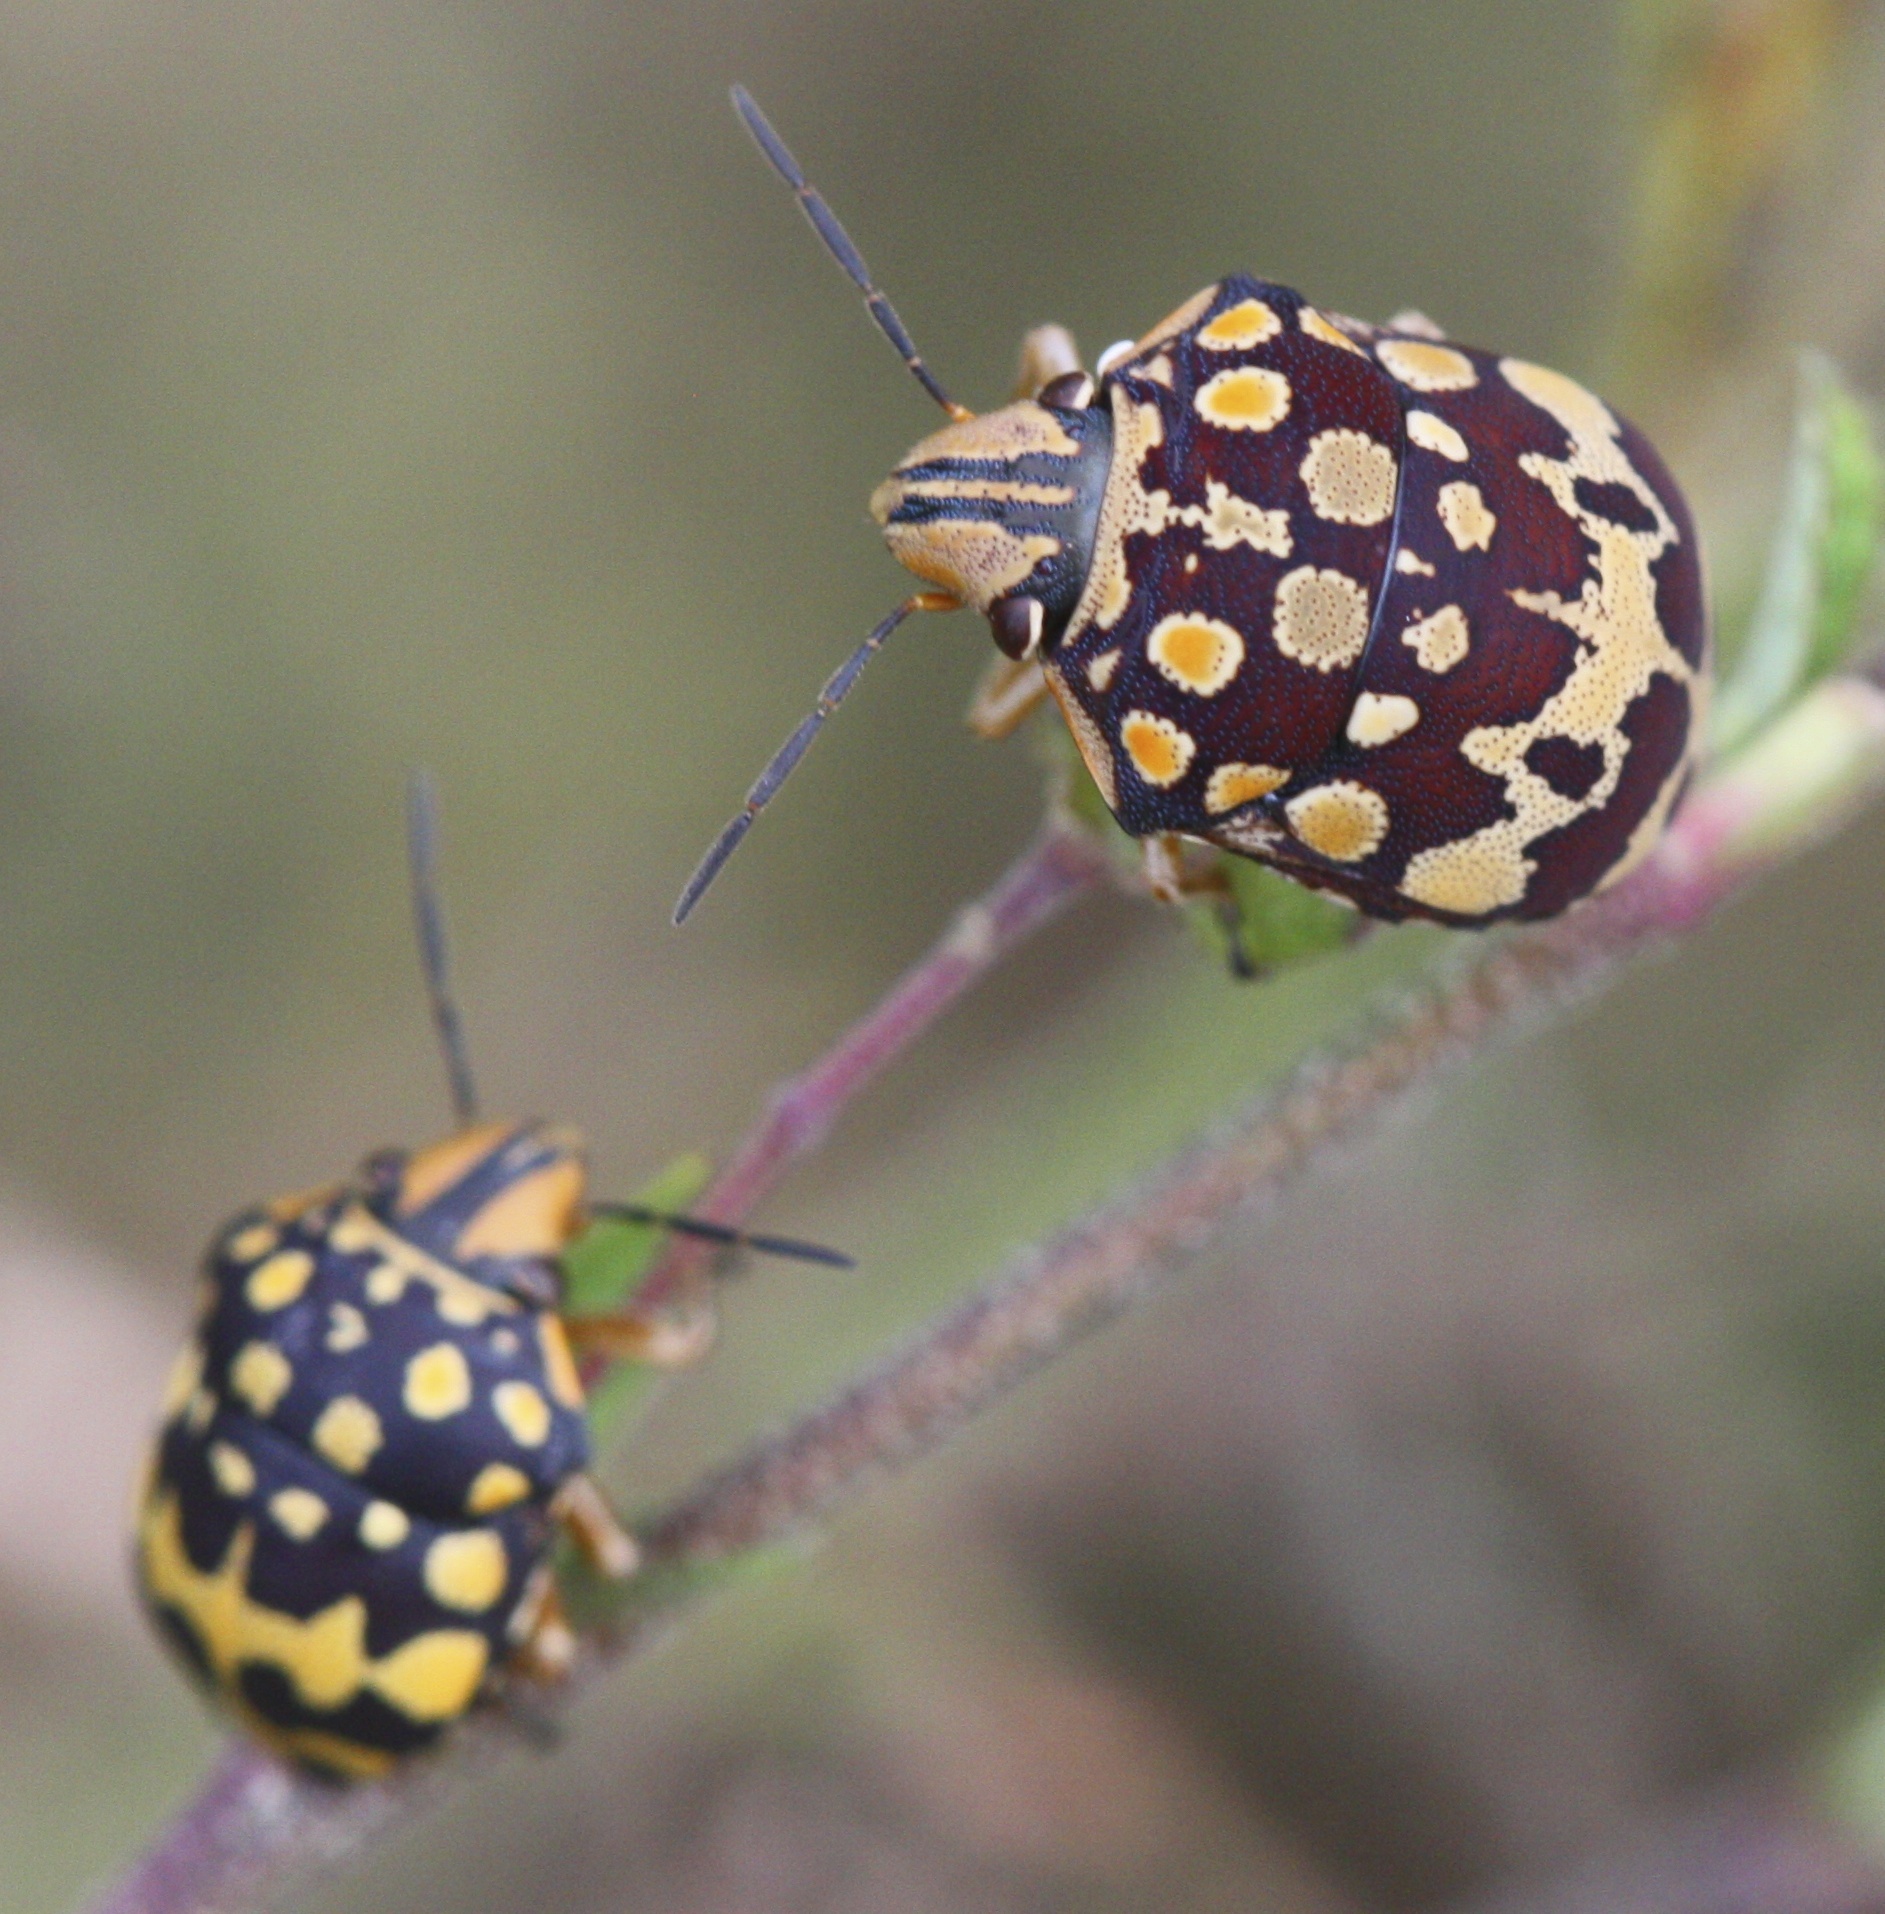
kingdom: Animalia
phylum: Arthropoda
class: Insecta
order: Hemiptera
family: Scutelleridae
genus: Orsilochides
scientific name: Orsilochides
